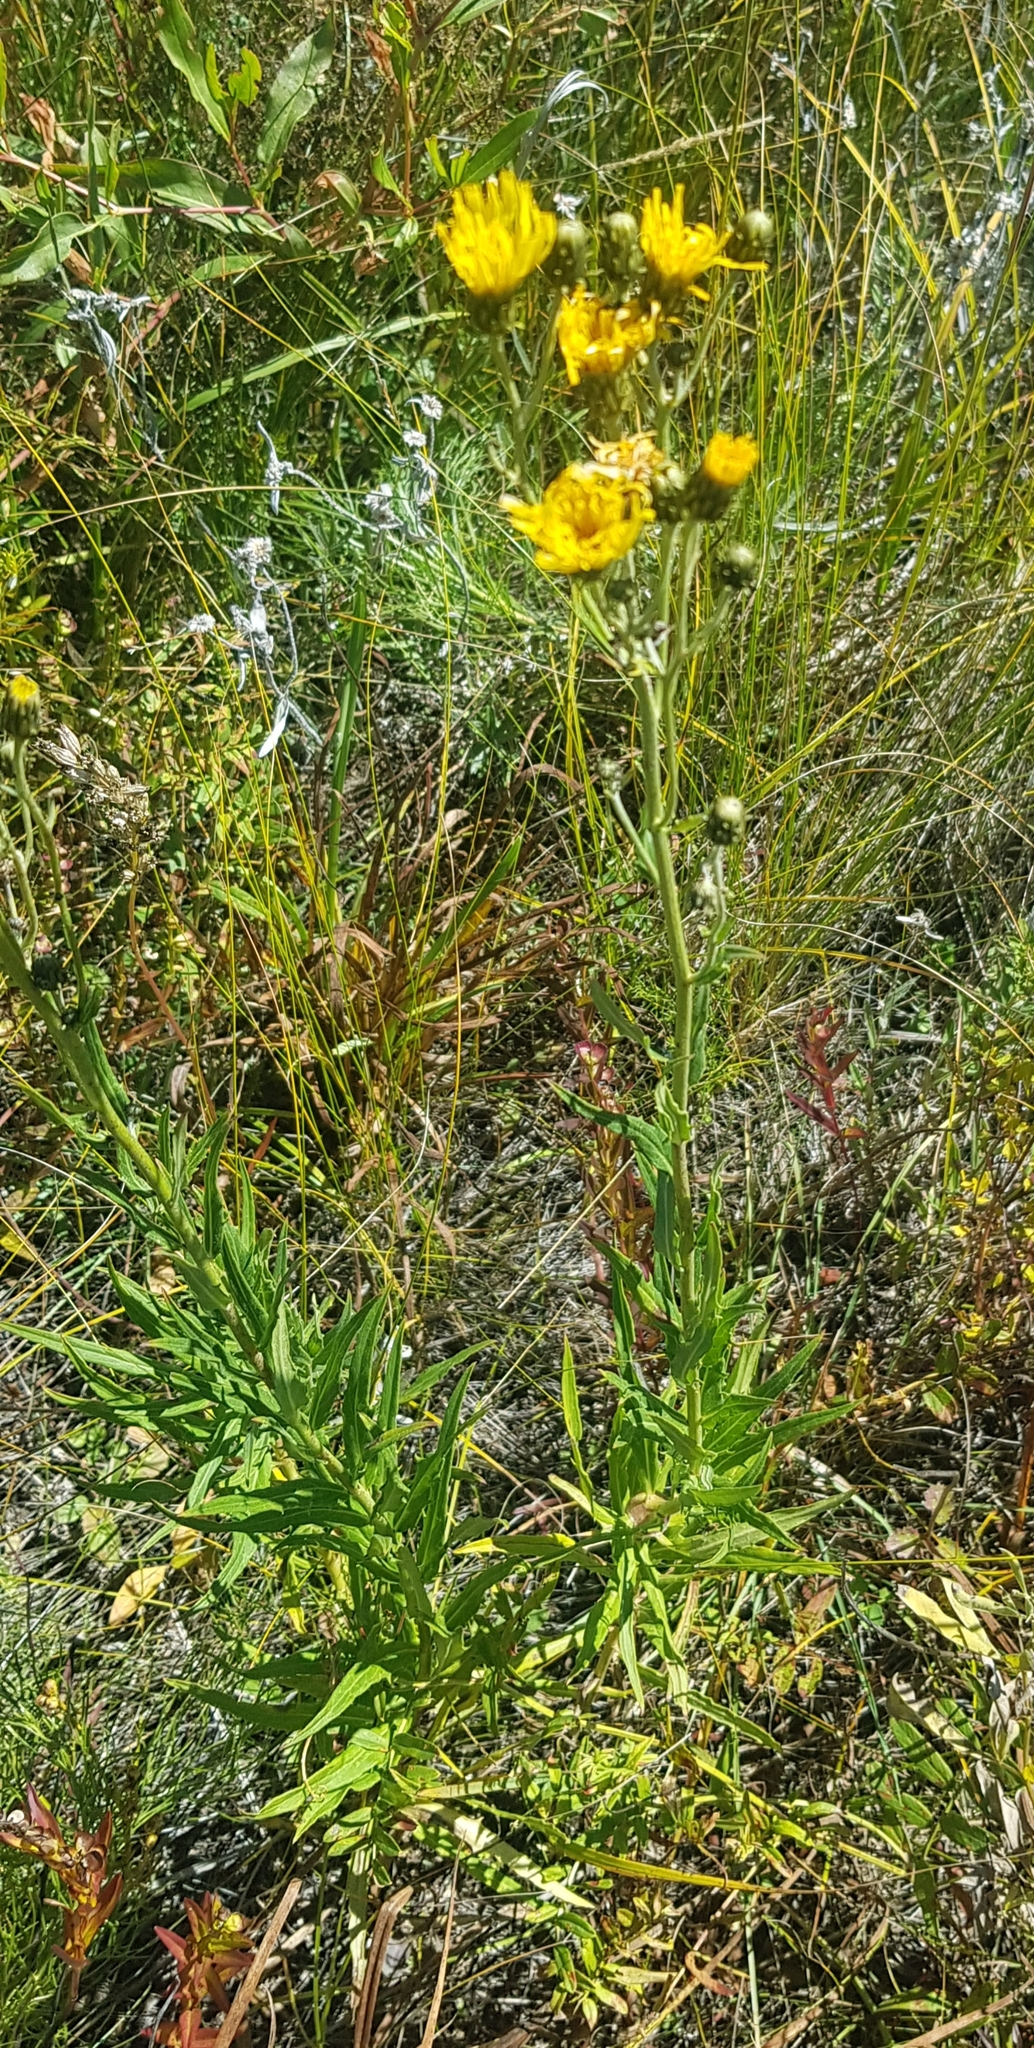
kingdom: Plantae
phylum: Tracheophyta
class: Magnoliopsida
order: Asterales
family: Asteraceae
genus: Pilosella
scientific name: Pilosella echioides
